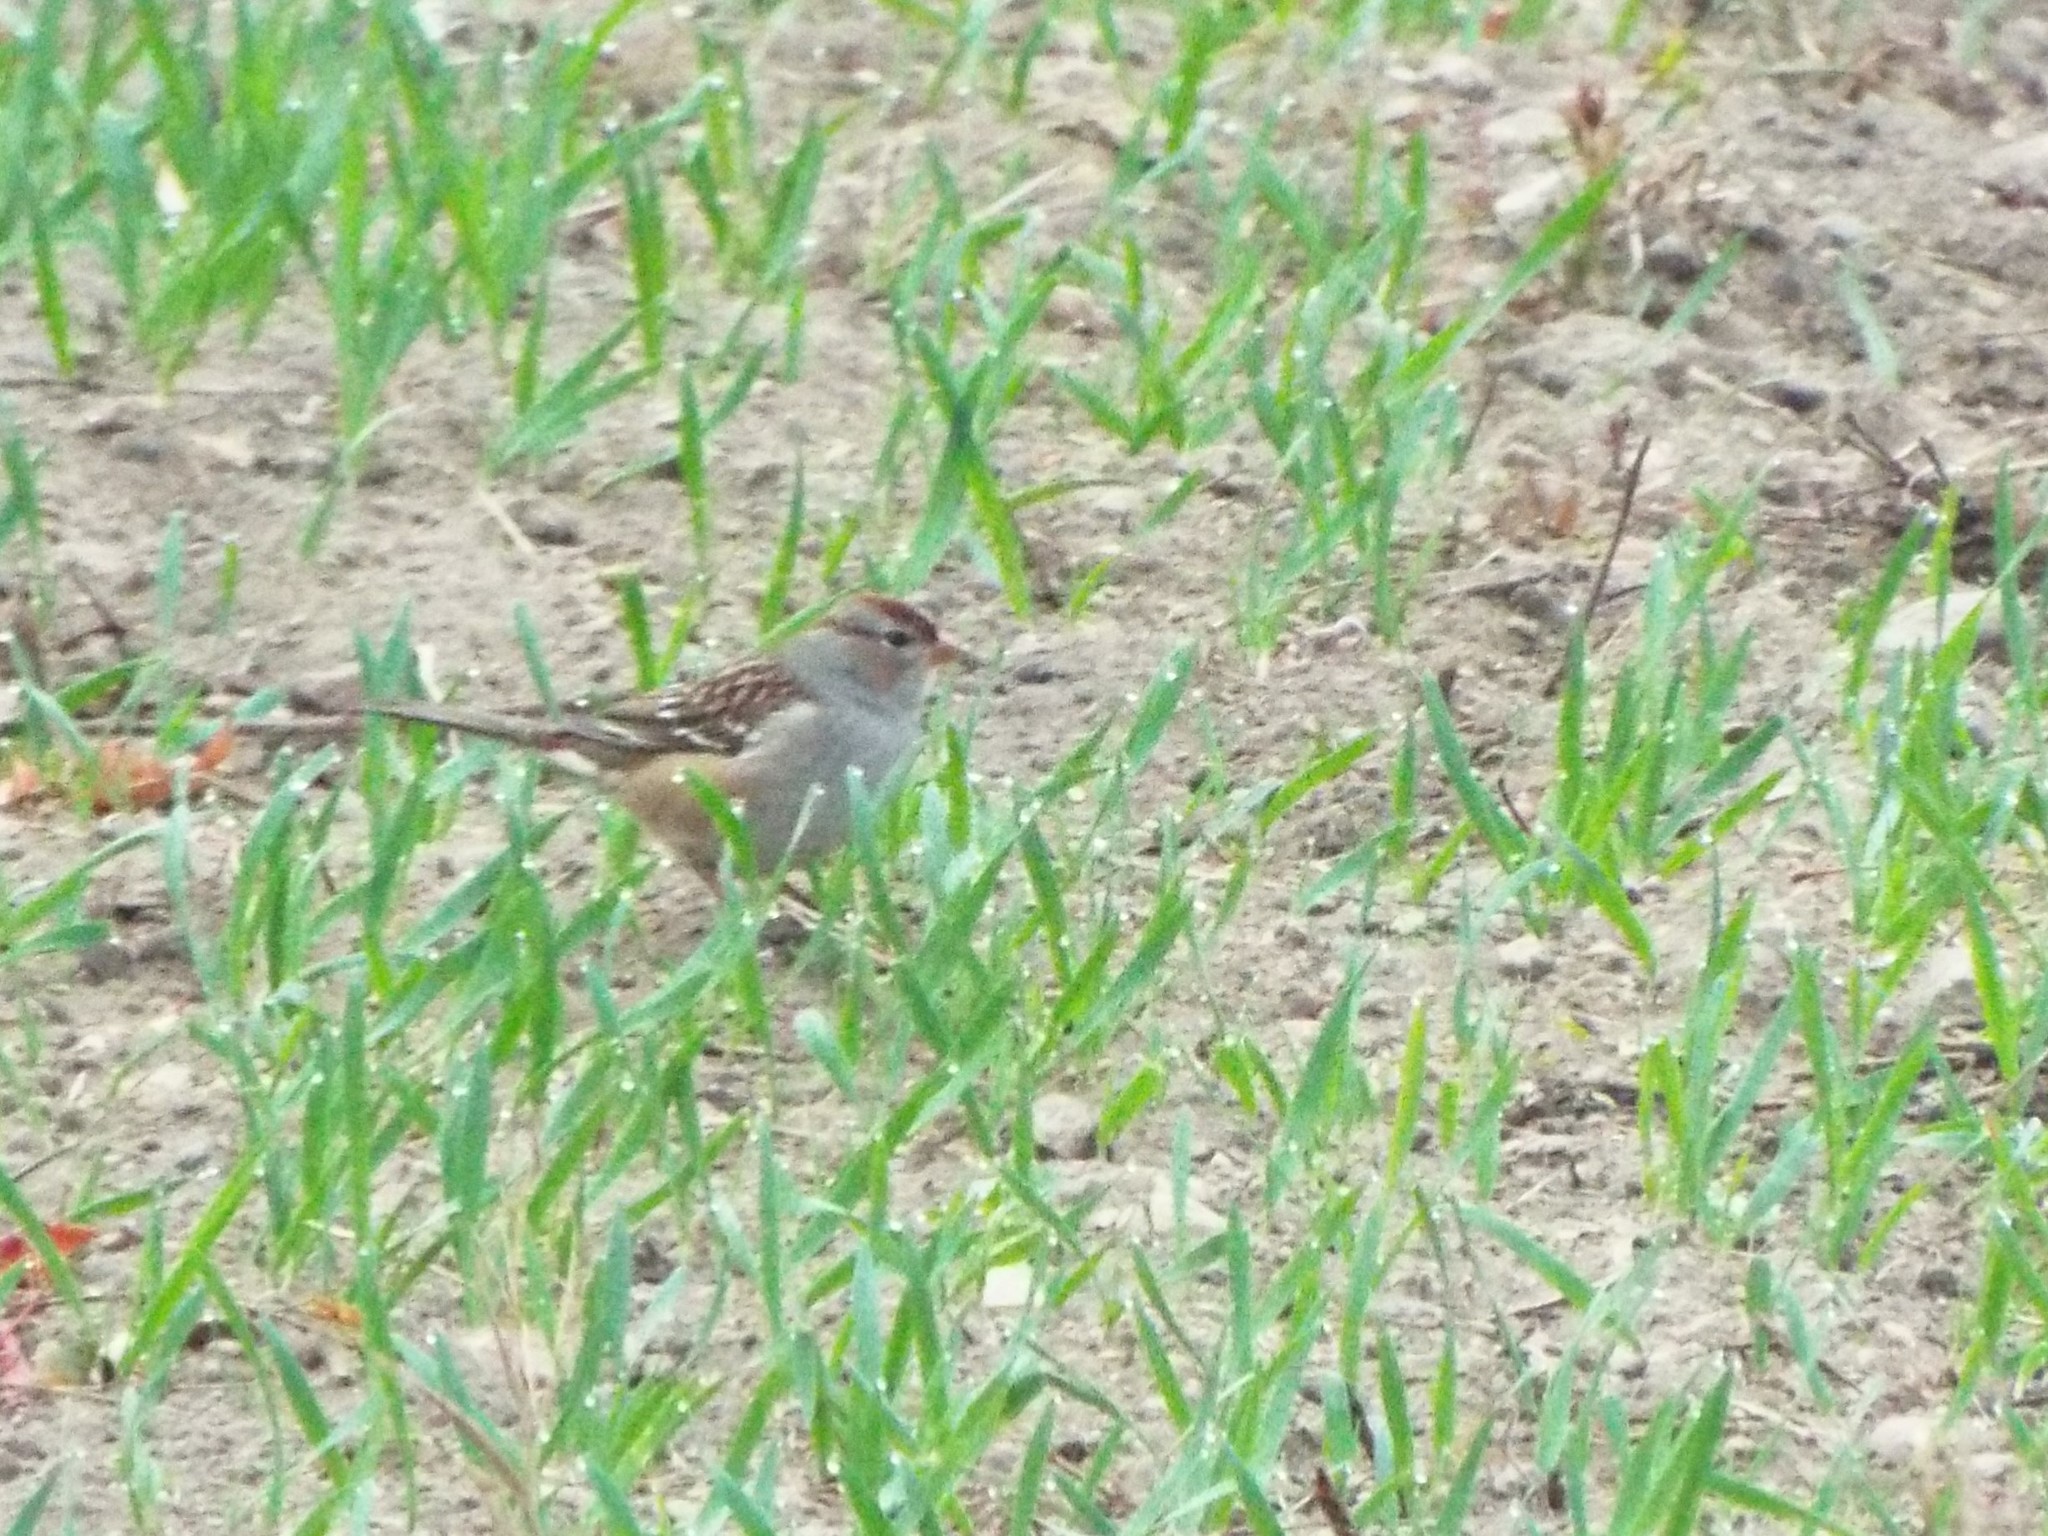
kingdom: Animalia
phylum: Chordata
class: Aves
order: Passeriformes
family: Passerellidae
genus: Zonotrichia
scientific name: Zonotrichia leucophrys
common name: White-crowned sparrow
